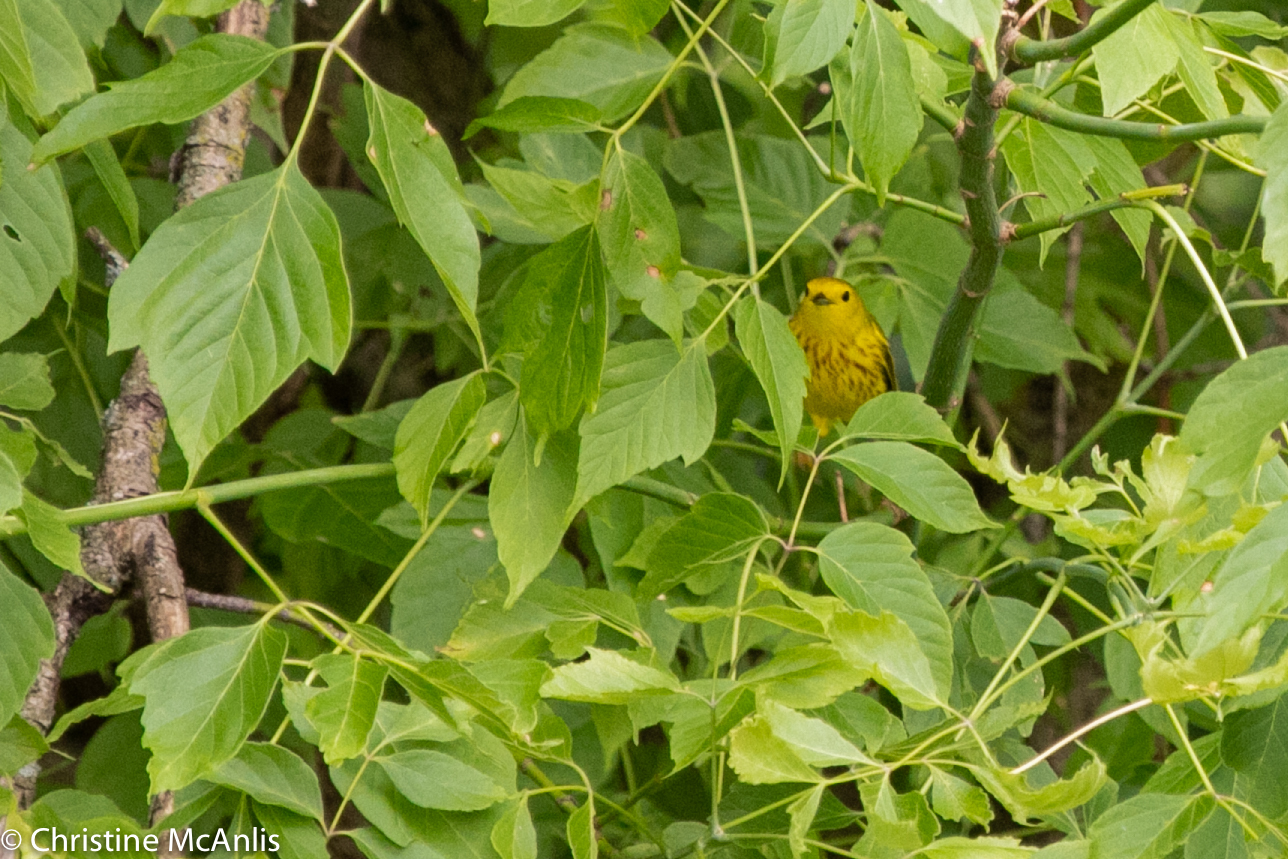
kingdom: Animalia
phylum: Chordata
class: Aves
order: Passeriformes
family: Parulidae
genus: Setophaga
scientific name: Setophaga petechia
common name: Yellow warbler
